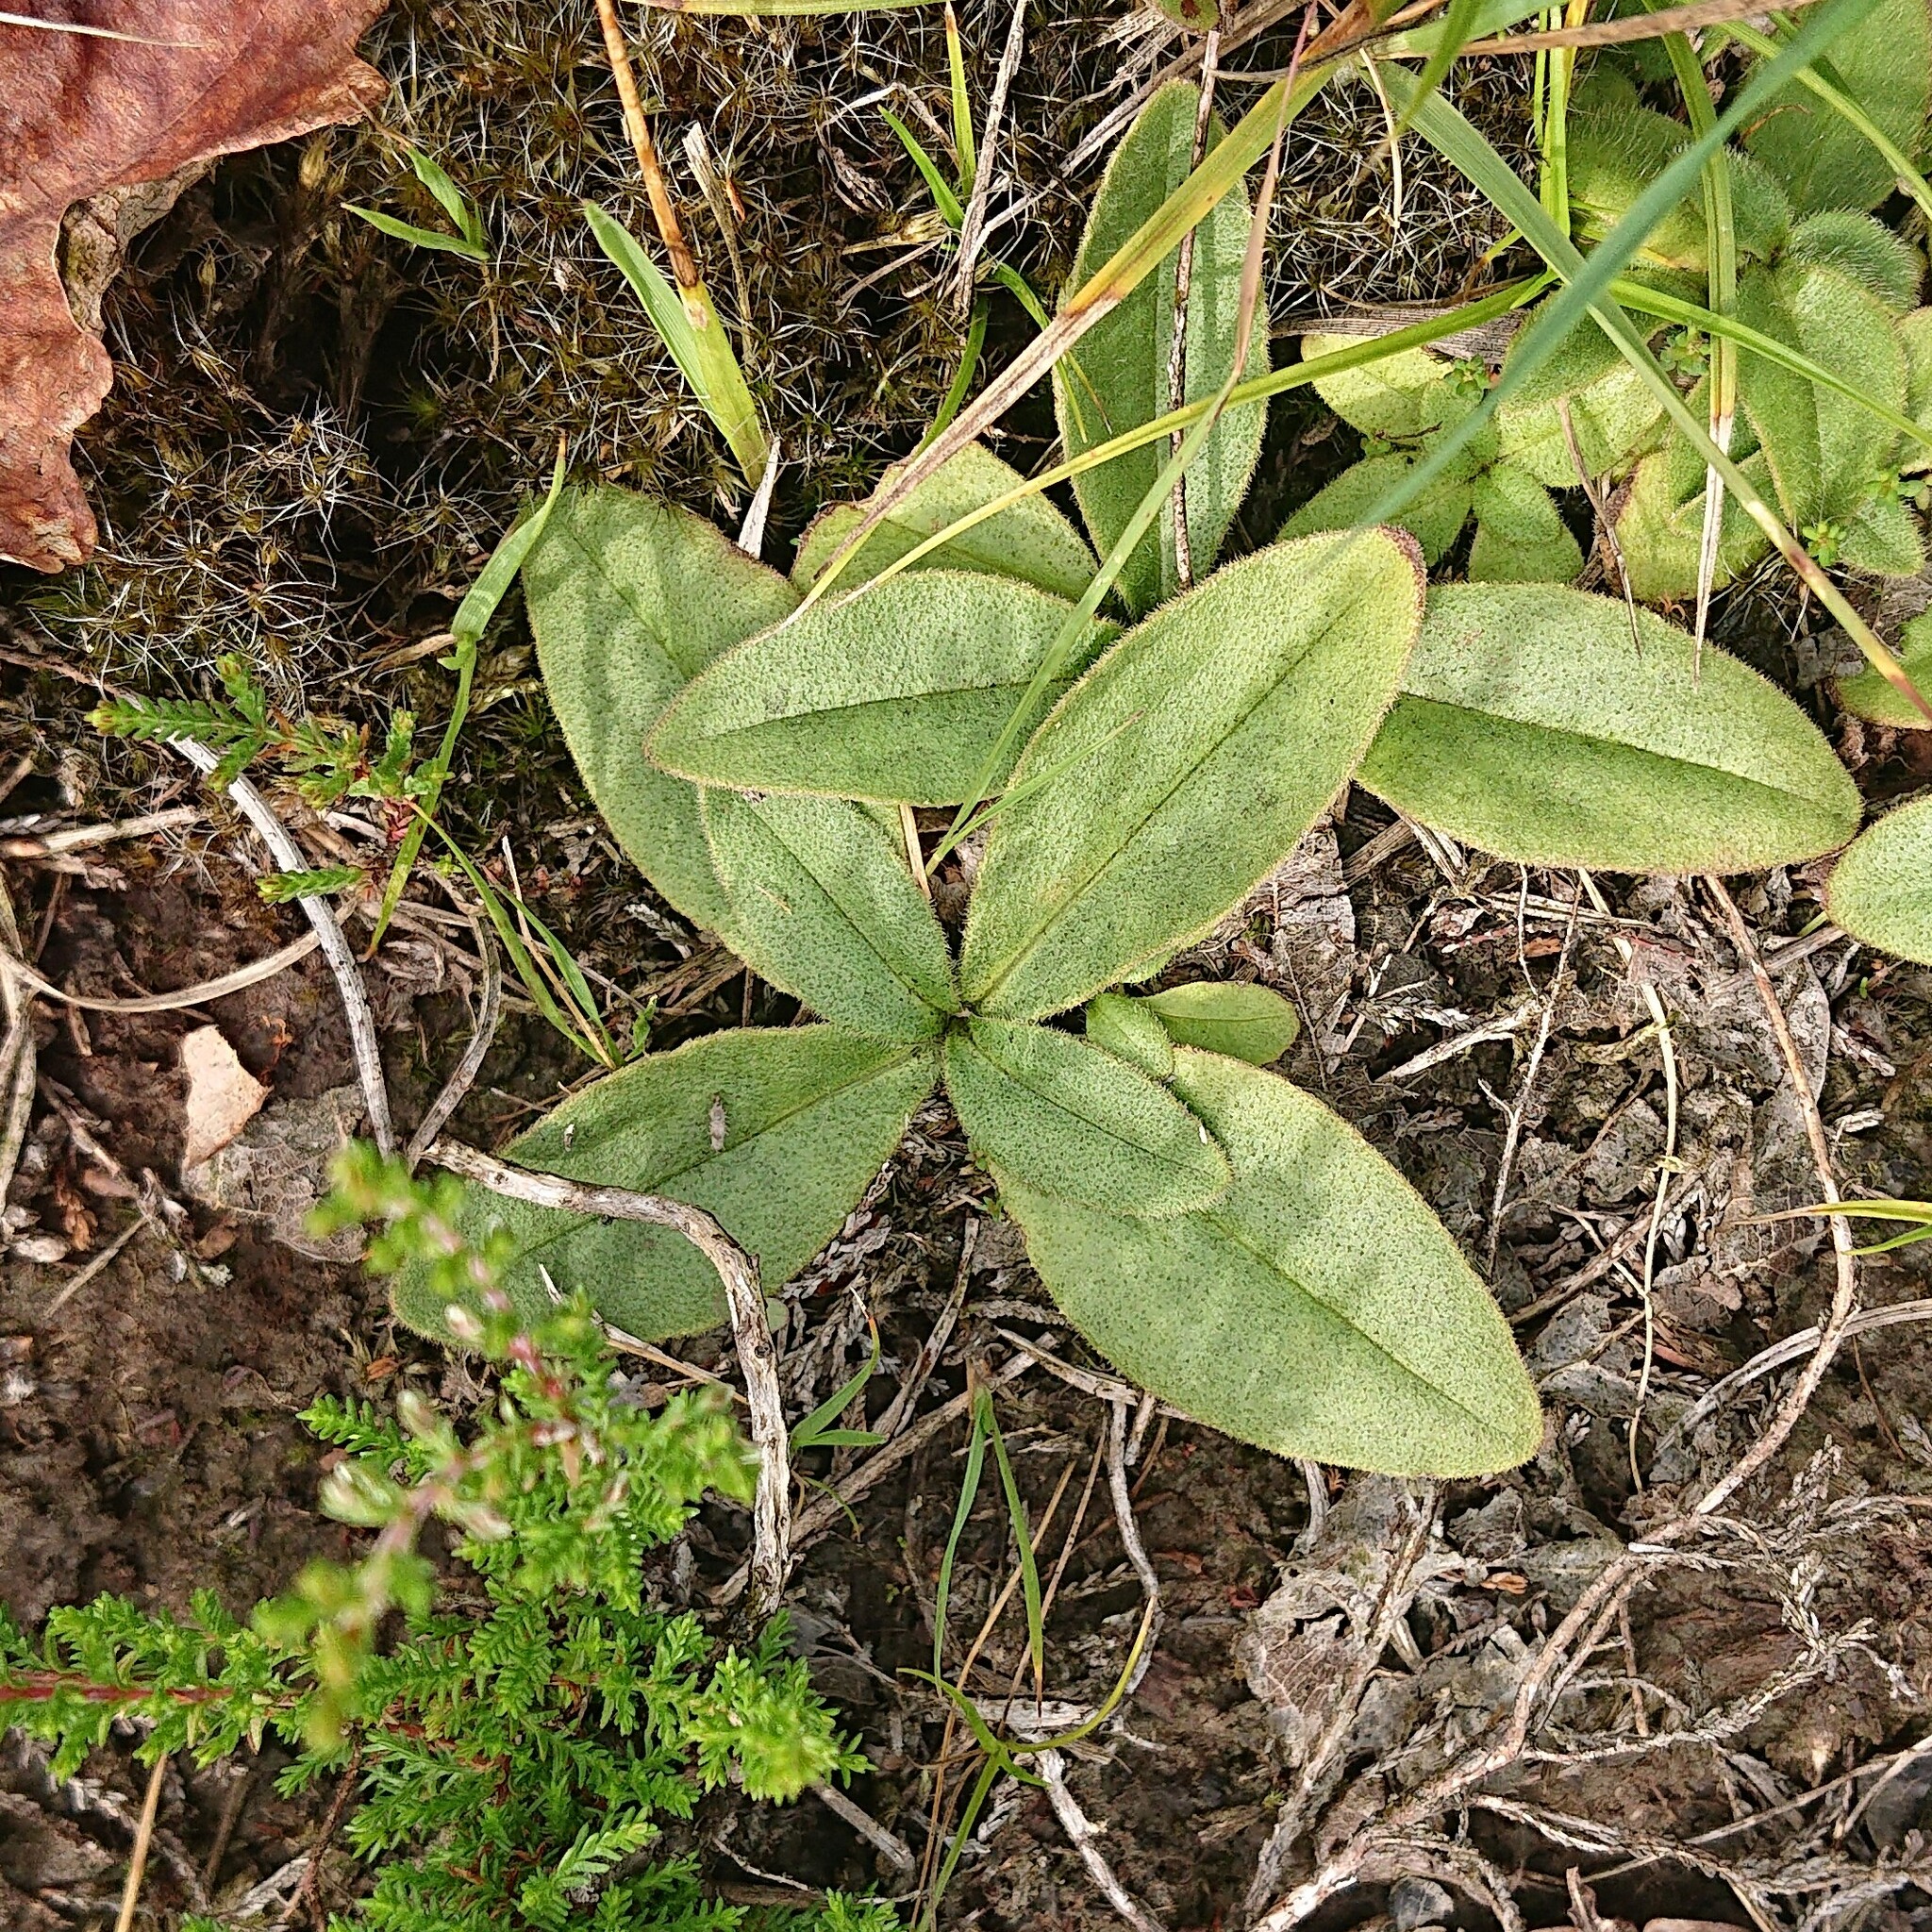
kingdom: Plantae
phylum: Tracheophyta
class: Magnoliopsida
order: Asterales
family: Asteraceae
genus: Arnica
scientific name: Arnica montana
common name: Leopard's bane
